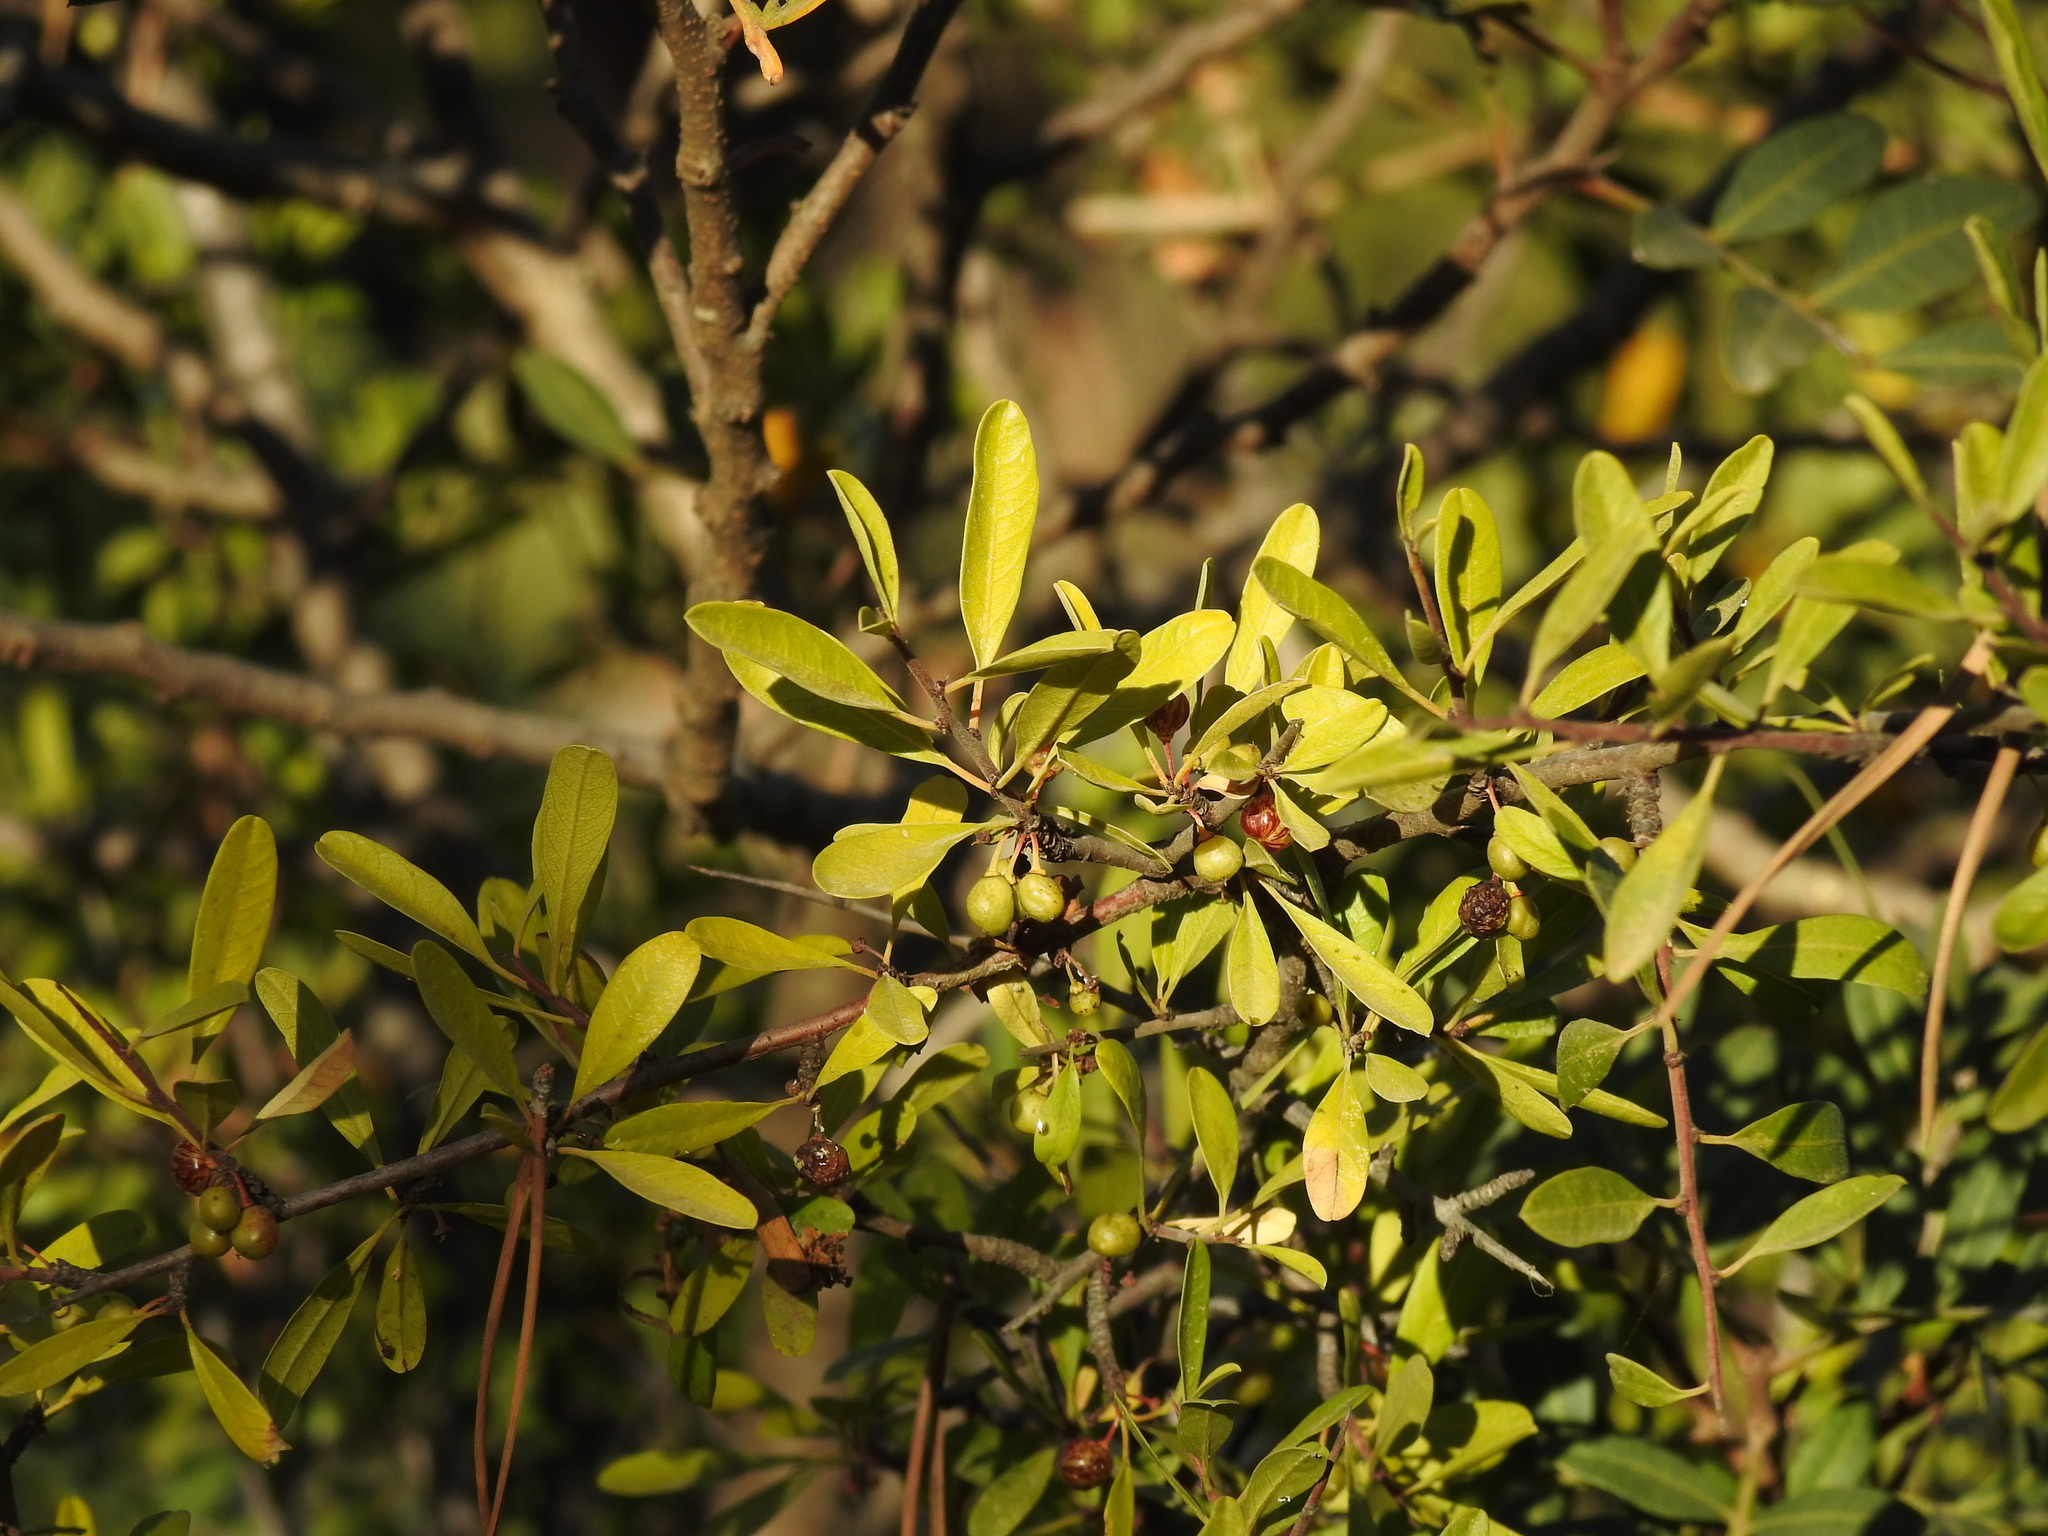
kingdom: Plantae
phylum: Tracheophyta
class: Magnoliopsida
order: Rosales
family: Rhamnaceae
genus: Rhamnus
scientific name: Rhamnus oleoides
